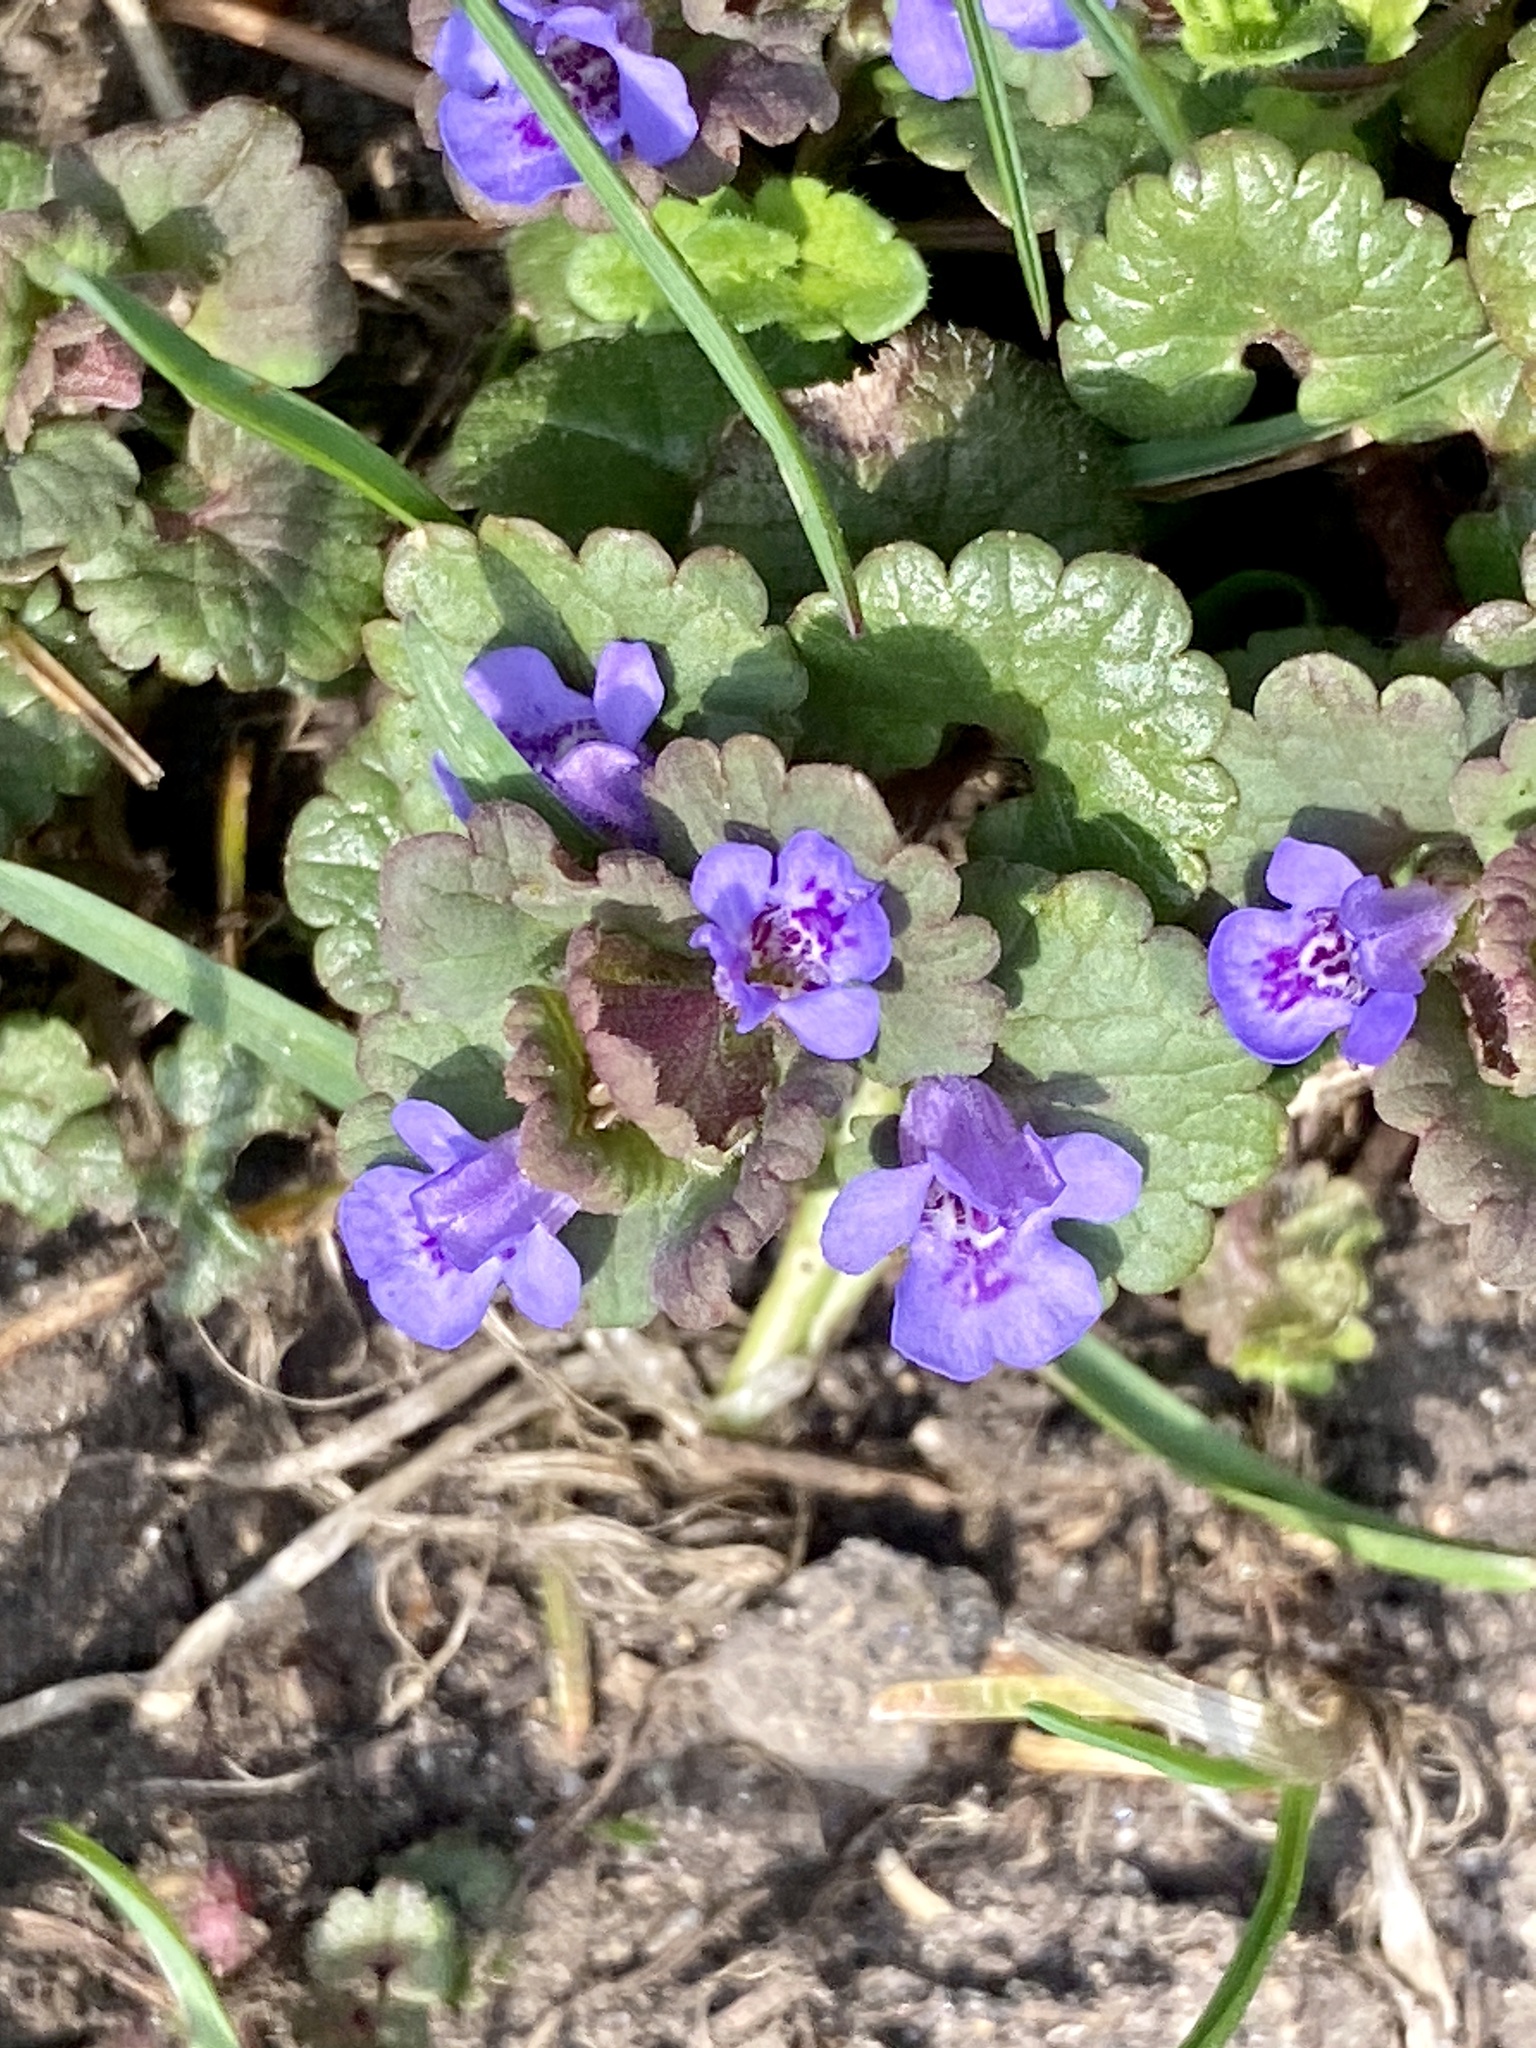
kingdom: Plantae
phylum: Tracheophyta
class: Magnoliopsida
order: Lamiales
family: Lamiaceae
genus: Glechoma
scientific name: Glechoma hederacea
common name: Ground ivy
